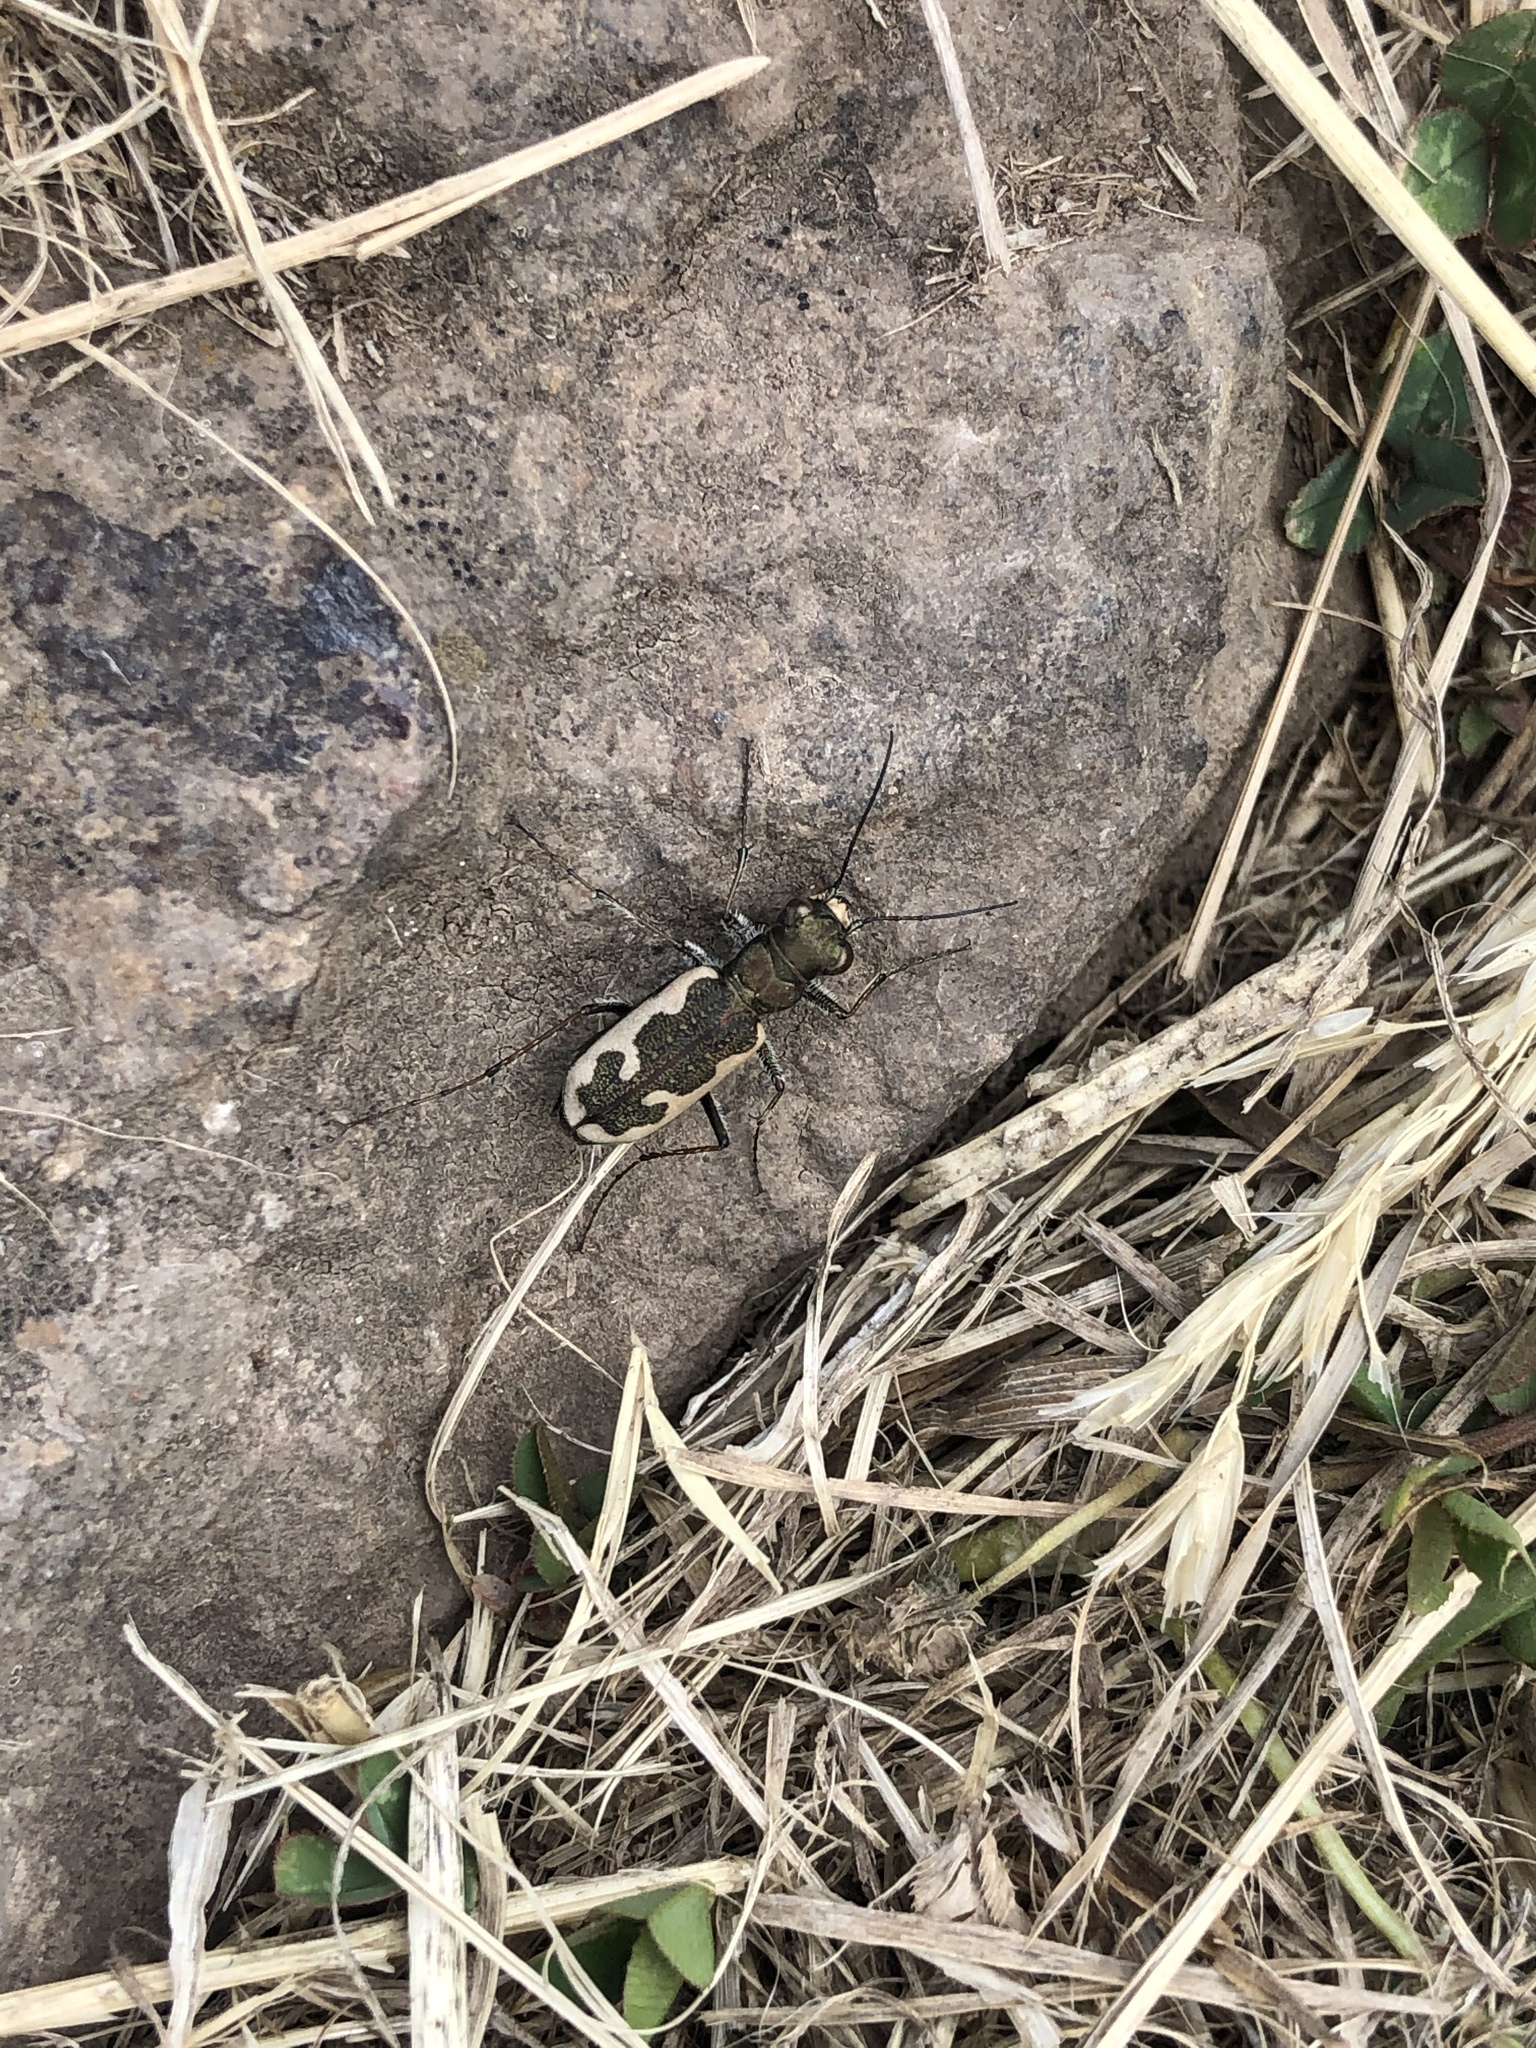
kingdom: Animalia
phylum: Arthropoda
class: Insecta
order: Coleoptera
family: Carabidae
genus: Neocicindela
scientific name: Neocicindela latecincta
